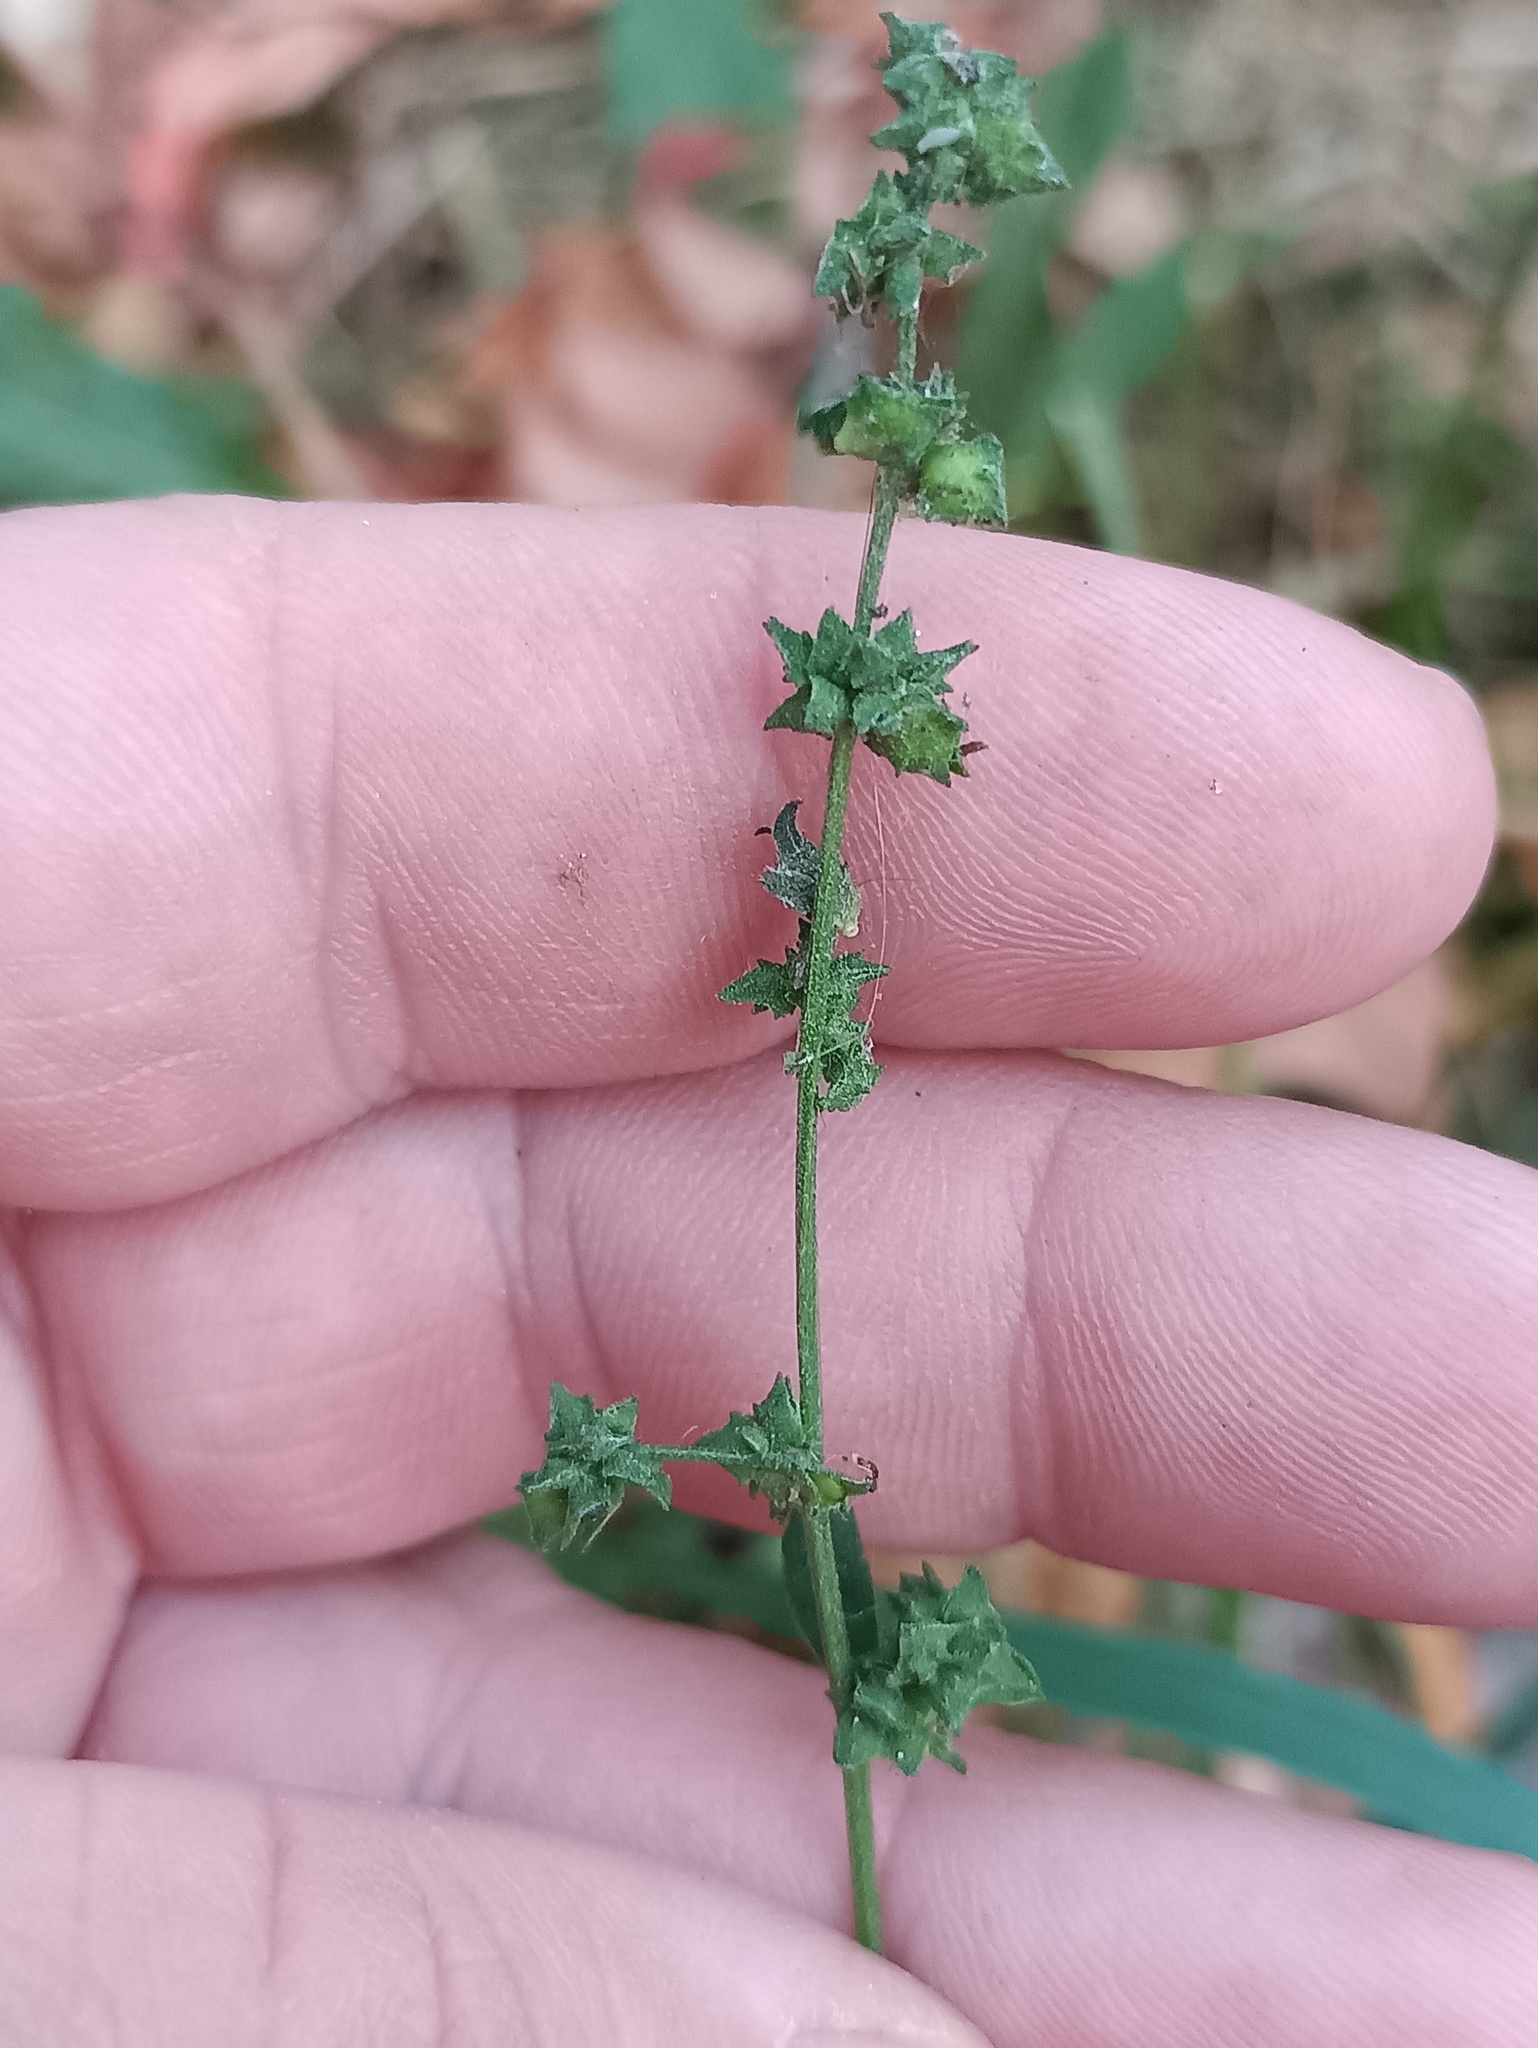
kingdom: Plantae
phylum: Tracheophyta
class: Magnoliopsida
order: Caryophyllales
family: Amaranthaceae
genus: Atriplex
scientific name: Atriplex patula
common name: Common orache
